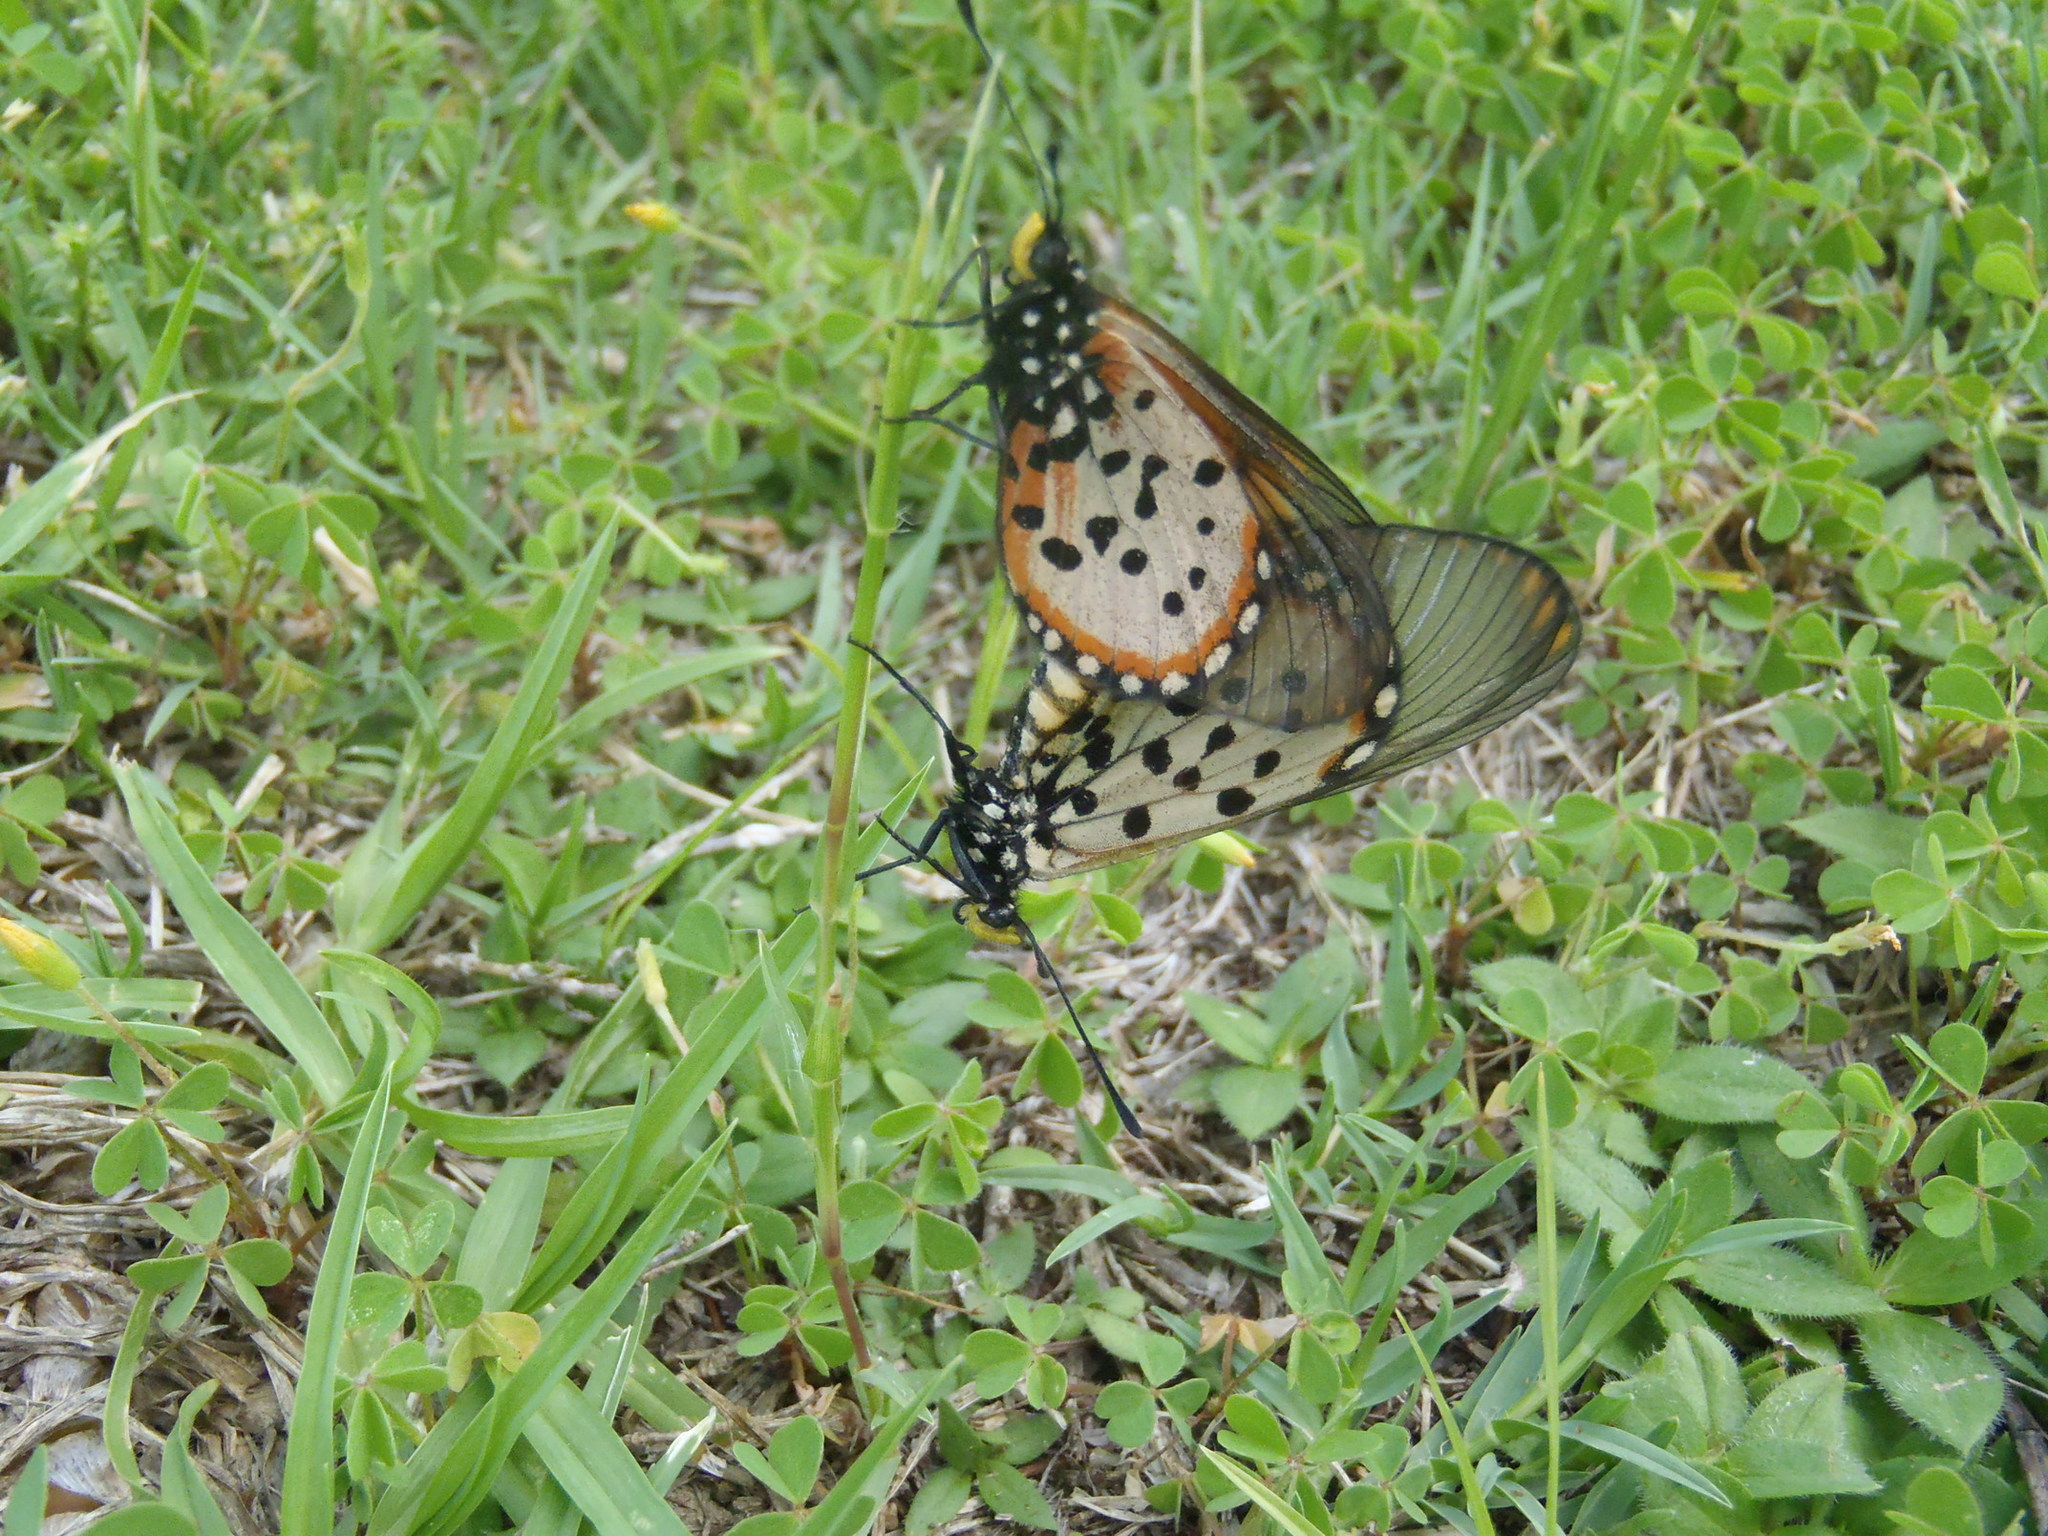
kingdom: Animalia
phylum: Arthropoda
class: Insecta
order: Lepidoptera
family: Nymphalidae
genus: Acraea
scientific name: Acraea horta
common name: Garden acraea
